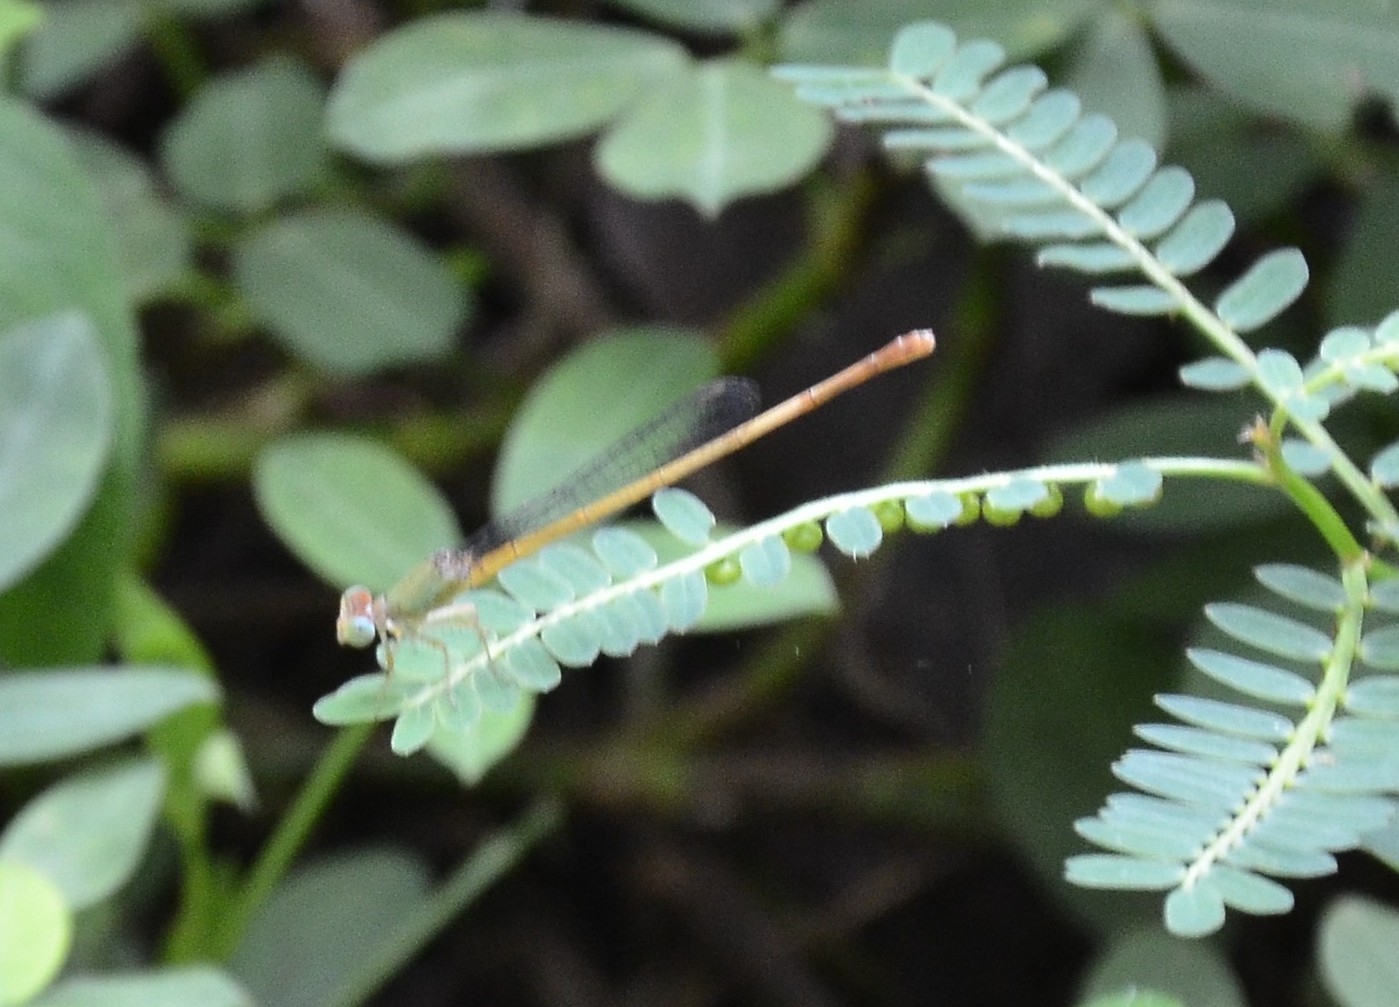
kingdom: Animalia
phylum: Arthropoda
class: Insecta
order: Odonata
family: Coenagrionidae
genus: Ceriagrion
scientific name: Ceriagrion coromandelianum
